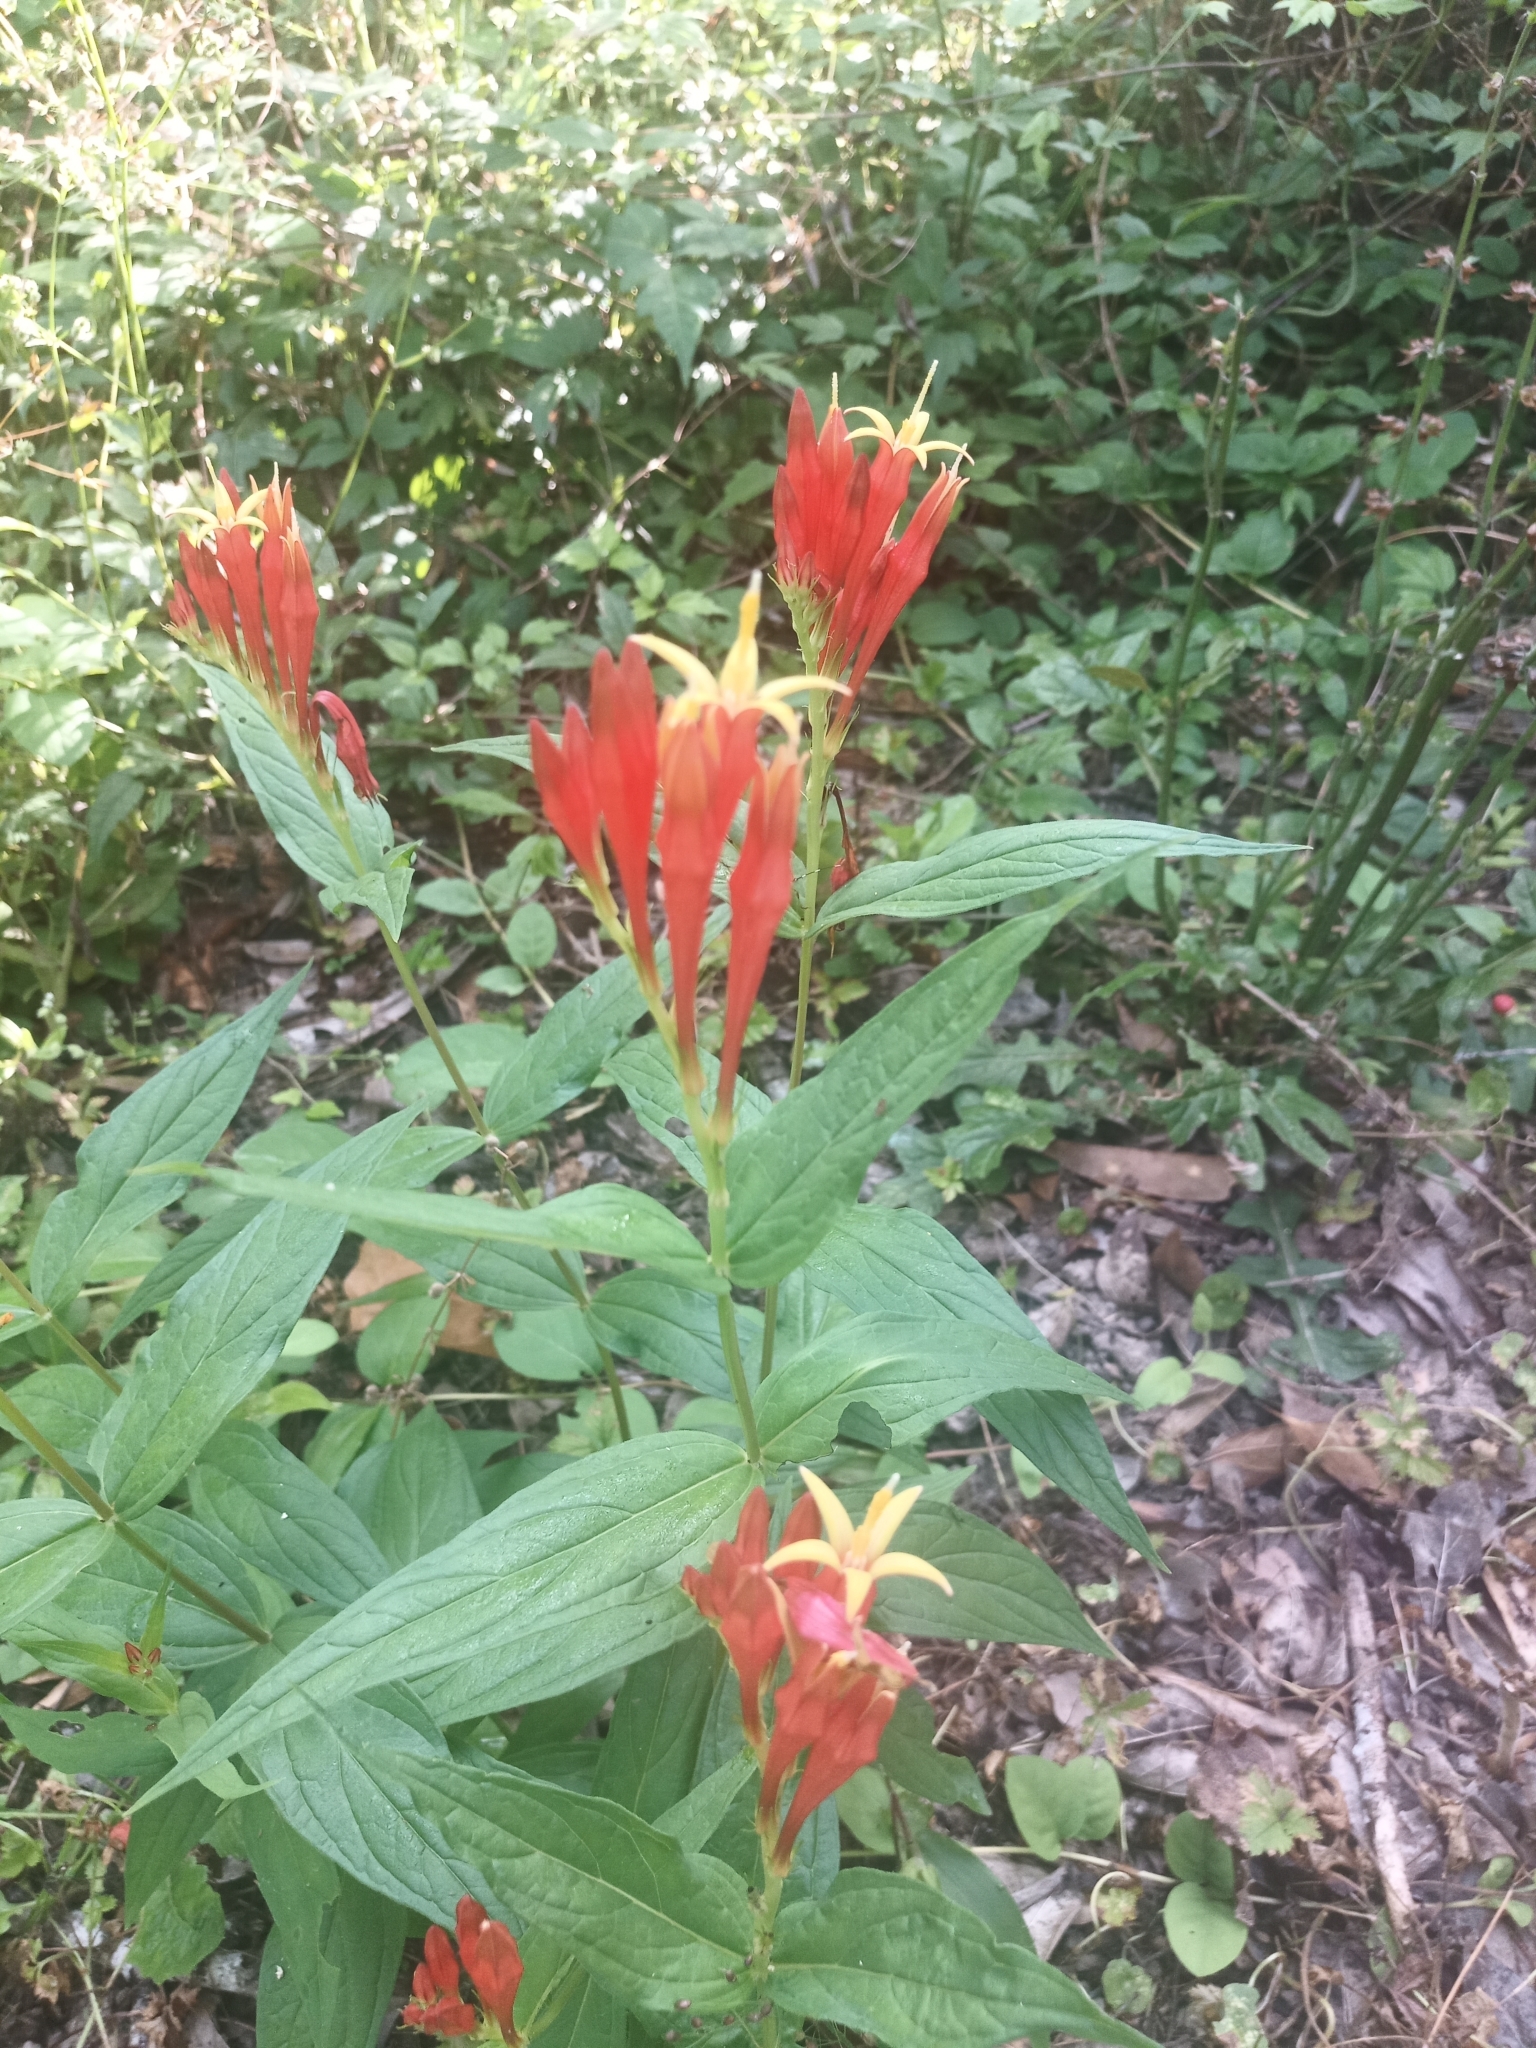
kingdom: Plantae
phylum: Tracheophyta
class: Magnoliopsida
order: Gentianales
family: Loganiaceae
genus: Spigelia
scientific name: Spigelia marilandica
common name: Indian-pink
